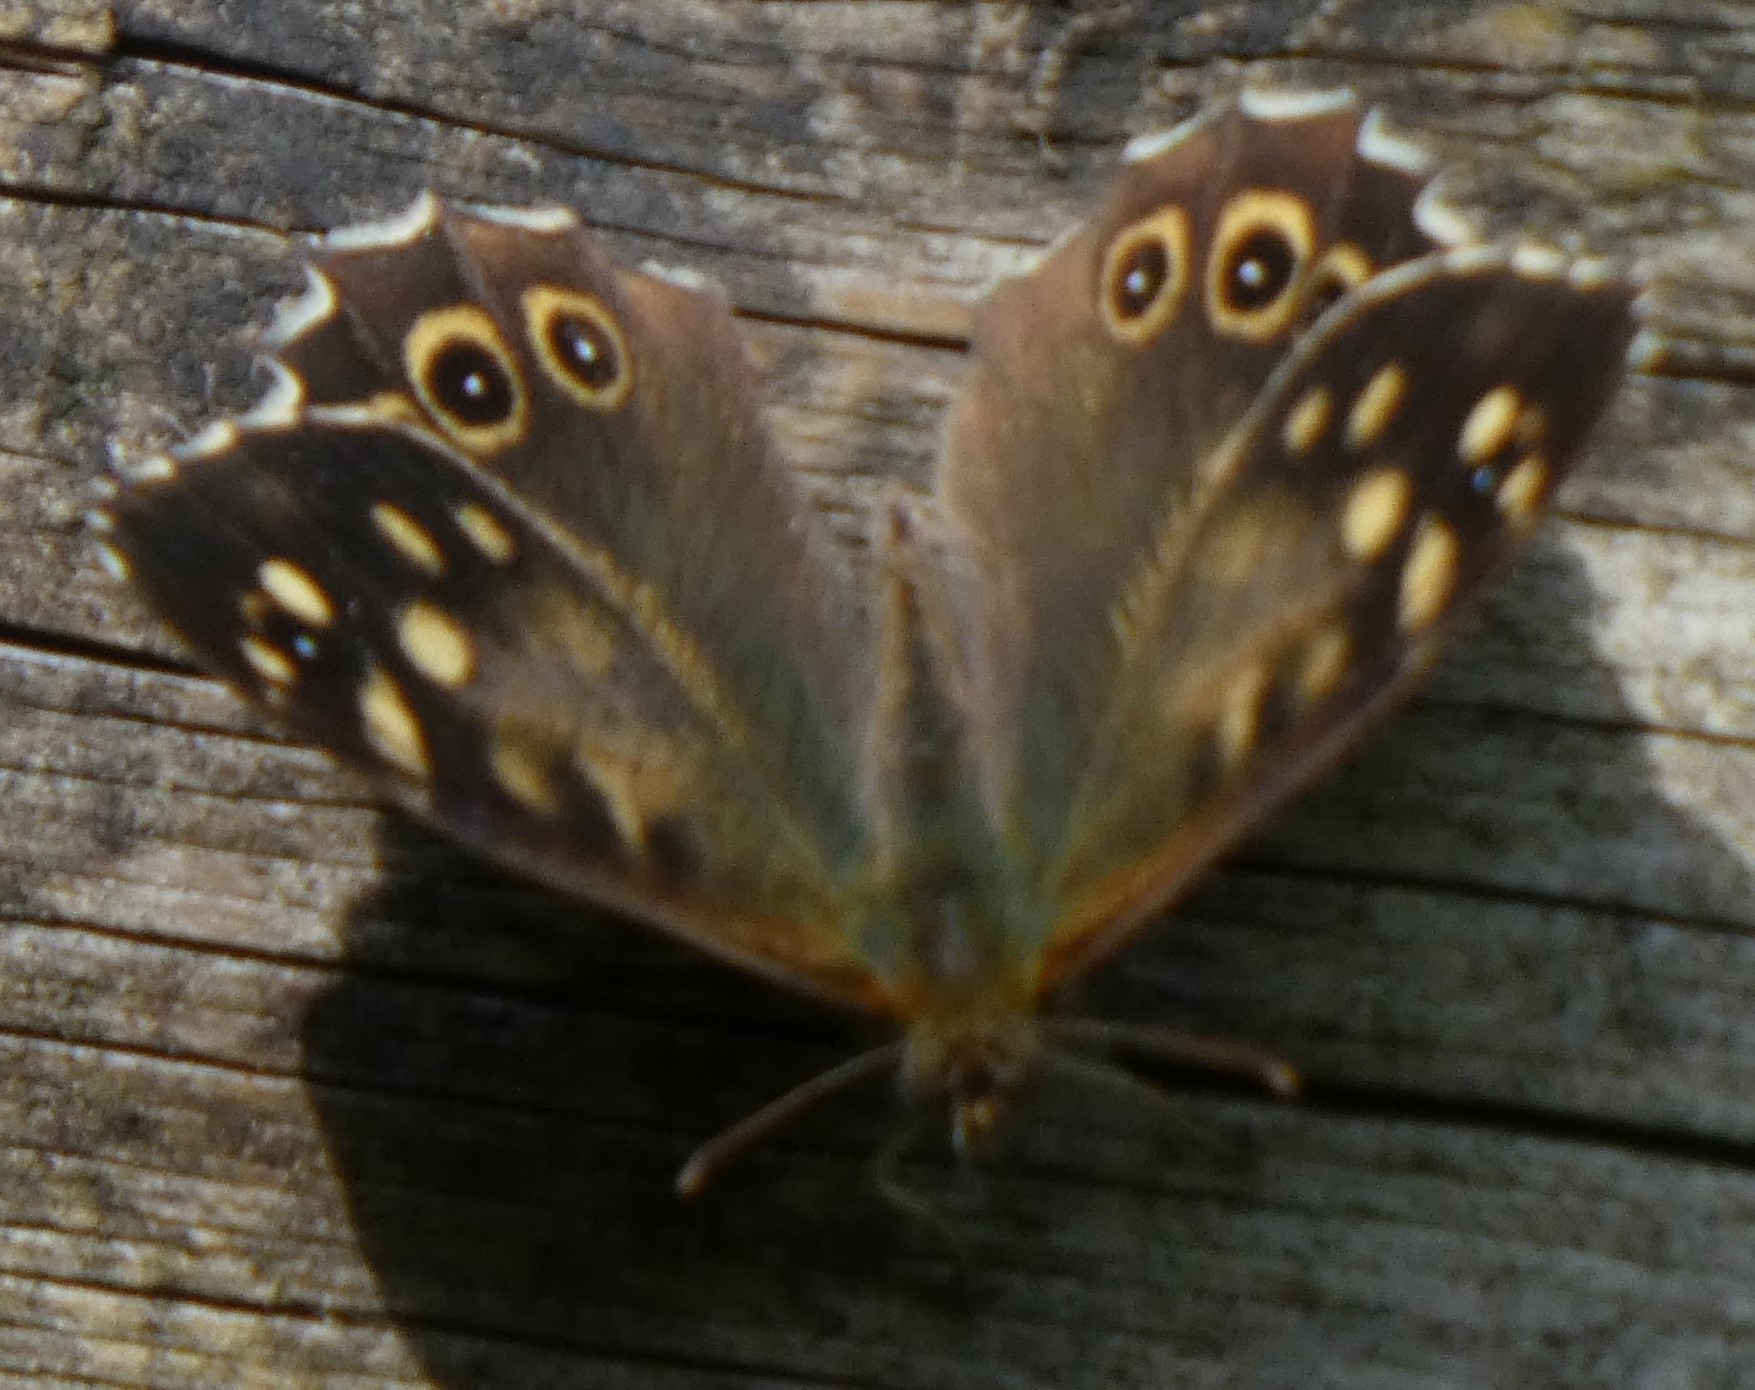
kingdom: Animalia
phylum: Arthropoda
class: Insecta
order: Lepidoptera
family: Nymphalidae
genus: Pararge
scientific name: Pararge aegeria
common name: Speckled wood
